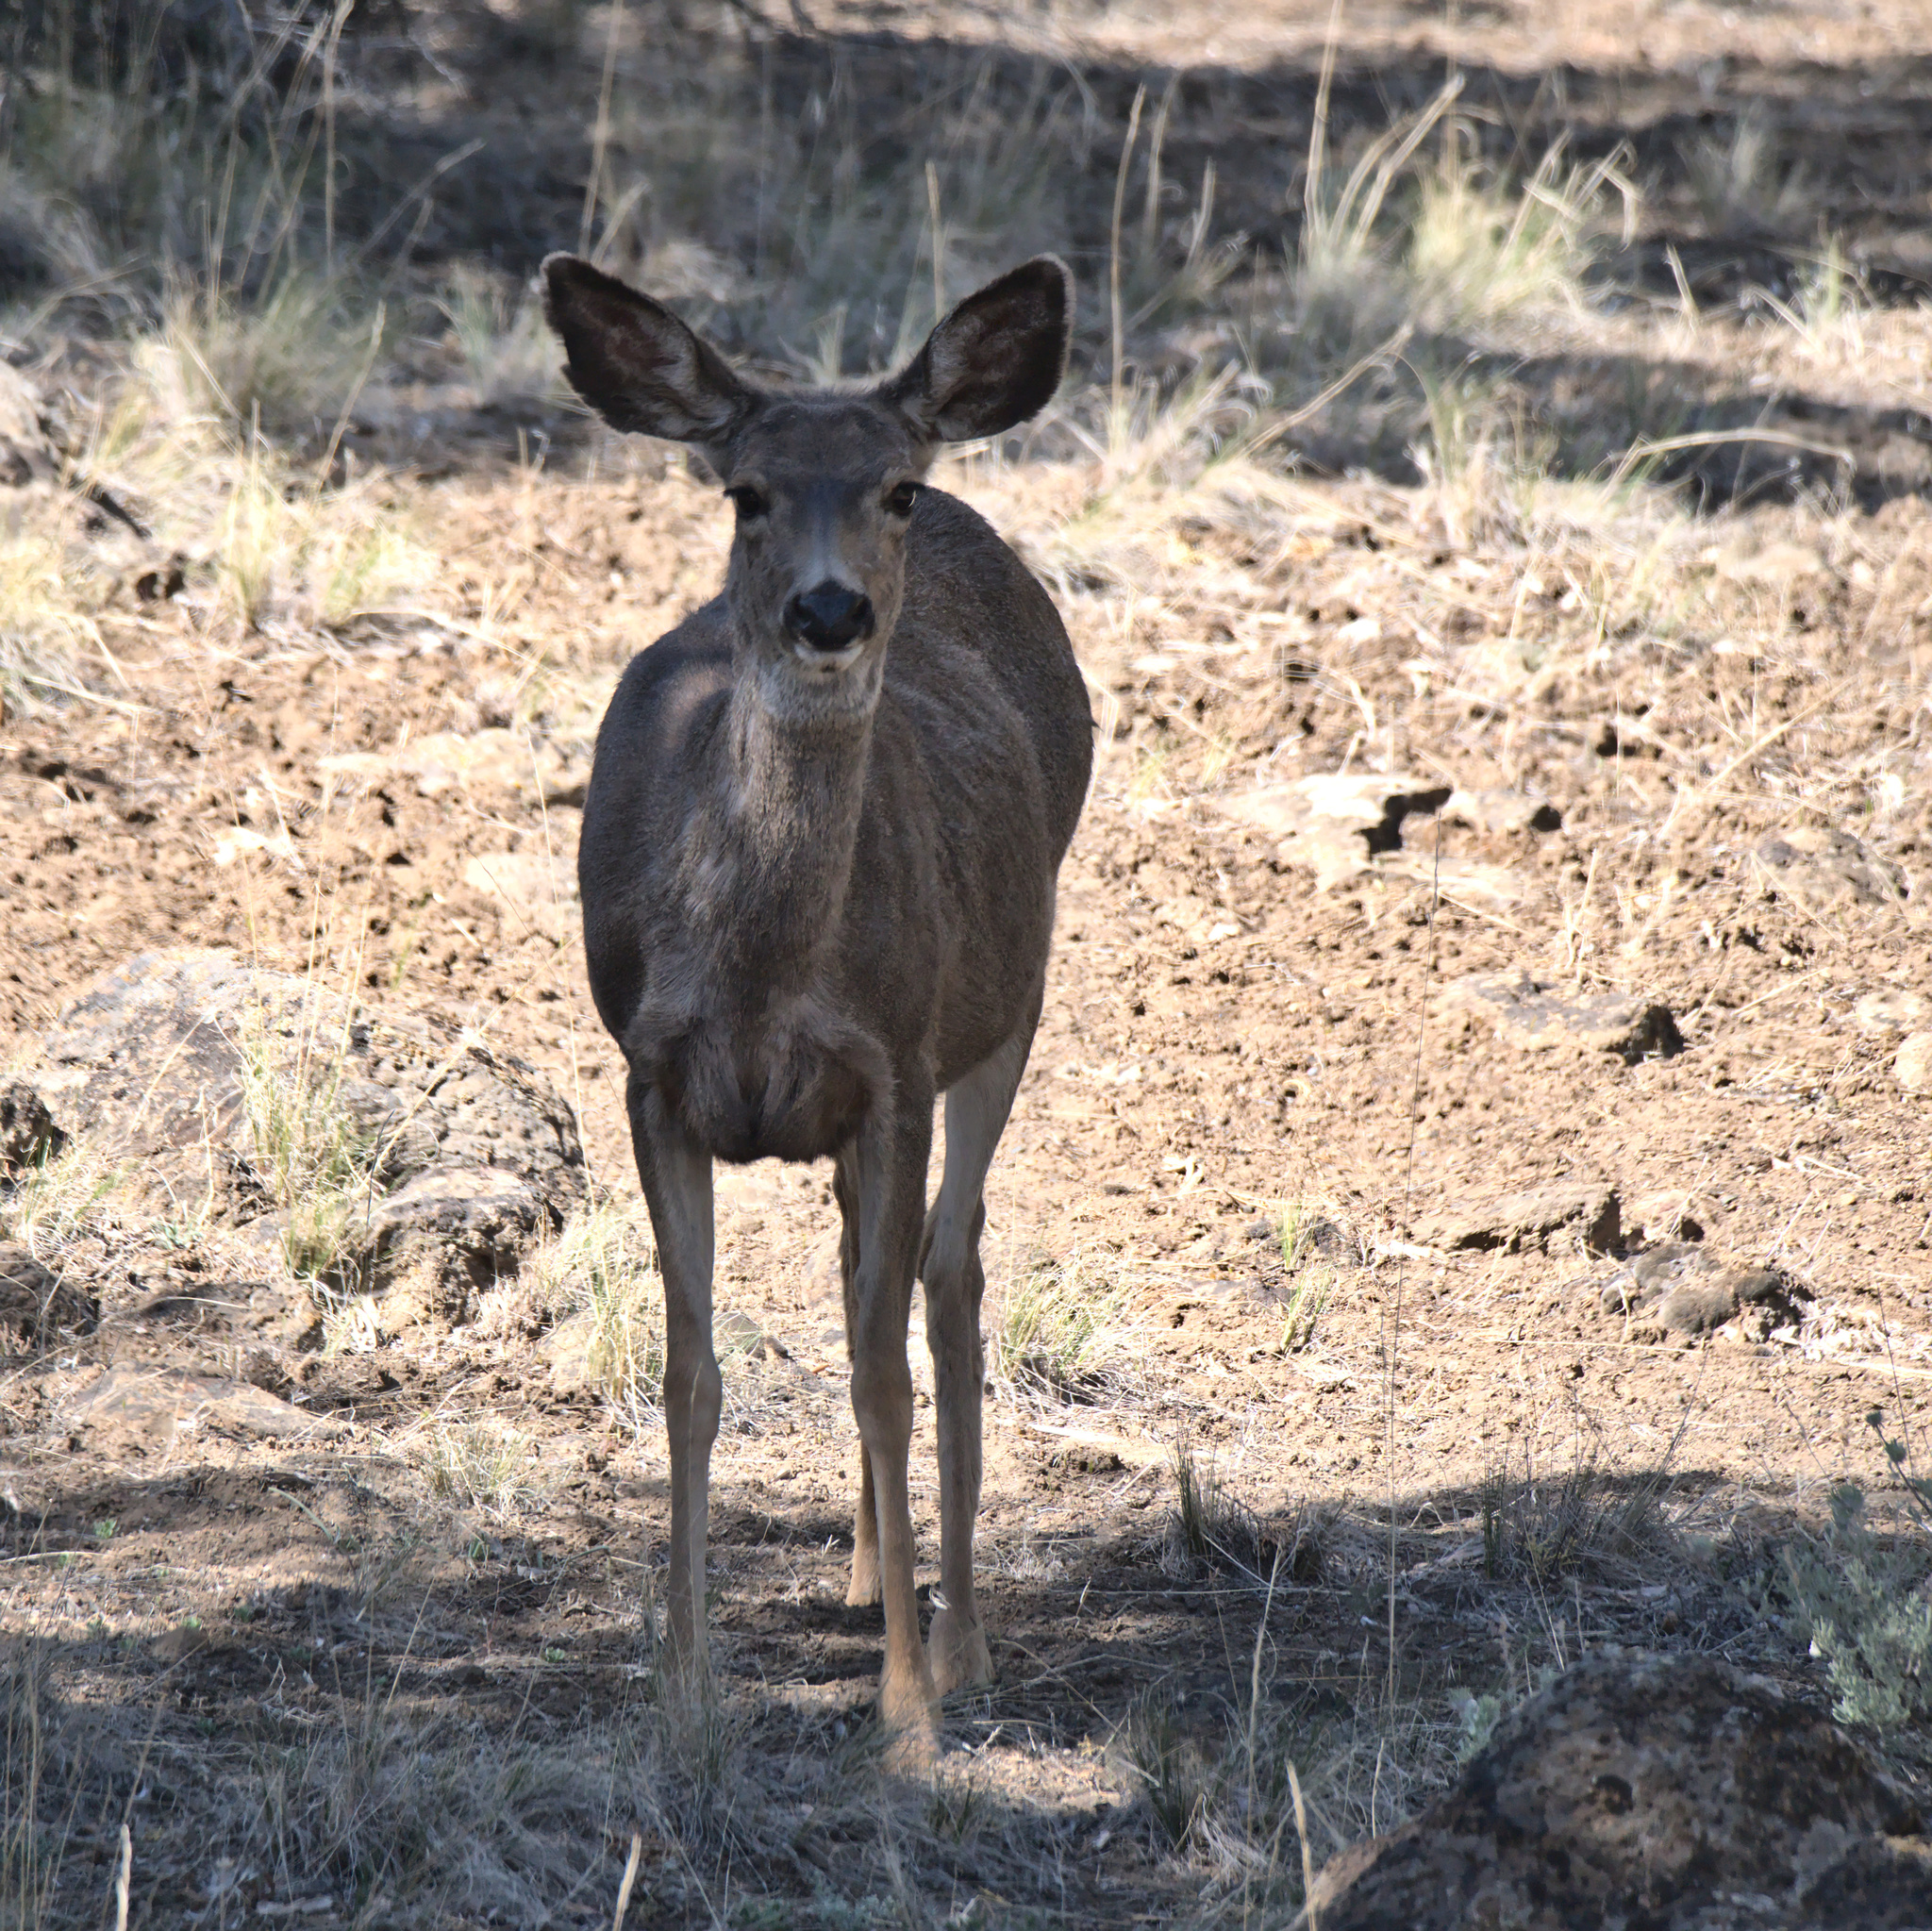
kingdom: Animalia
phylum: Chordata
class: Mammalia
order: Artiodactyla
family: Cervidae
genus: Odocoileus
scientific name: Odocoileus hemionus
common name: Mule deer
